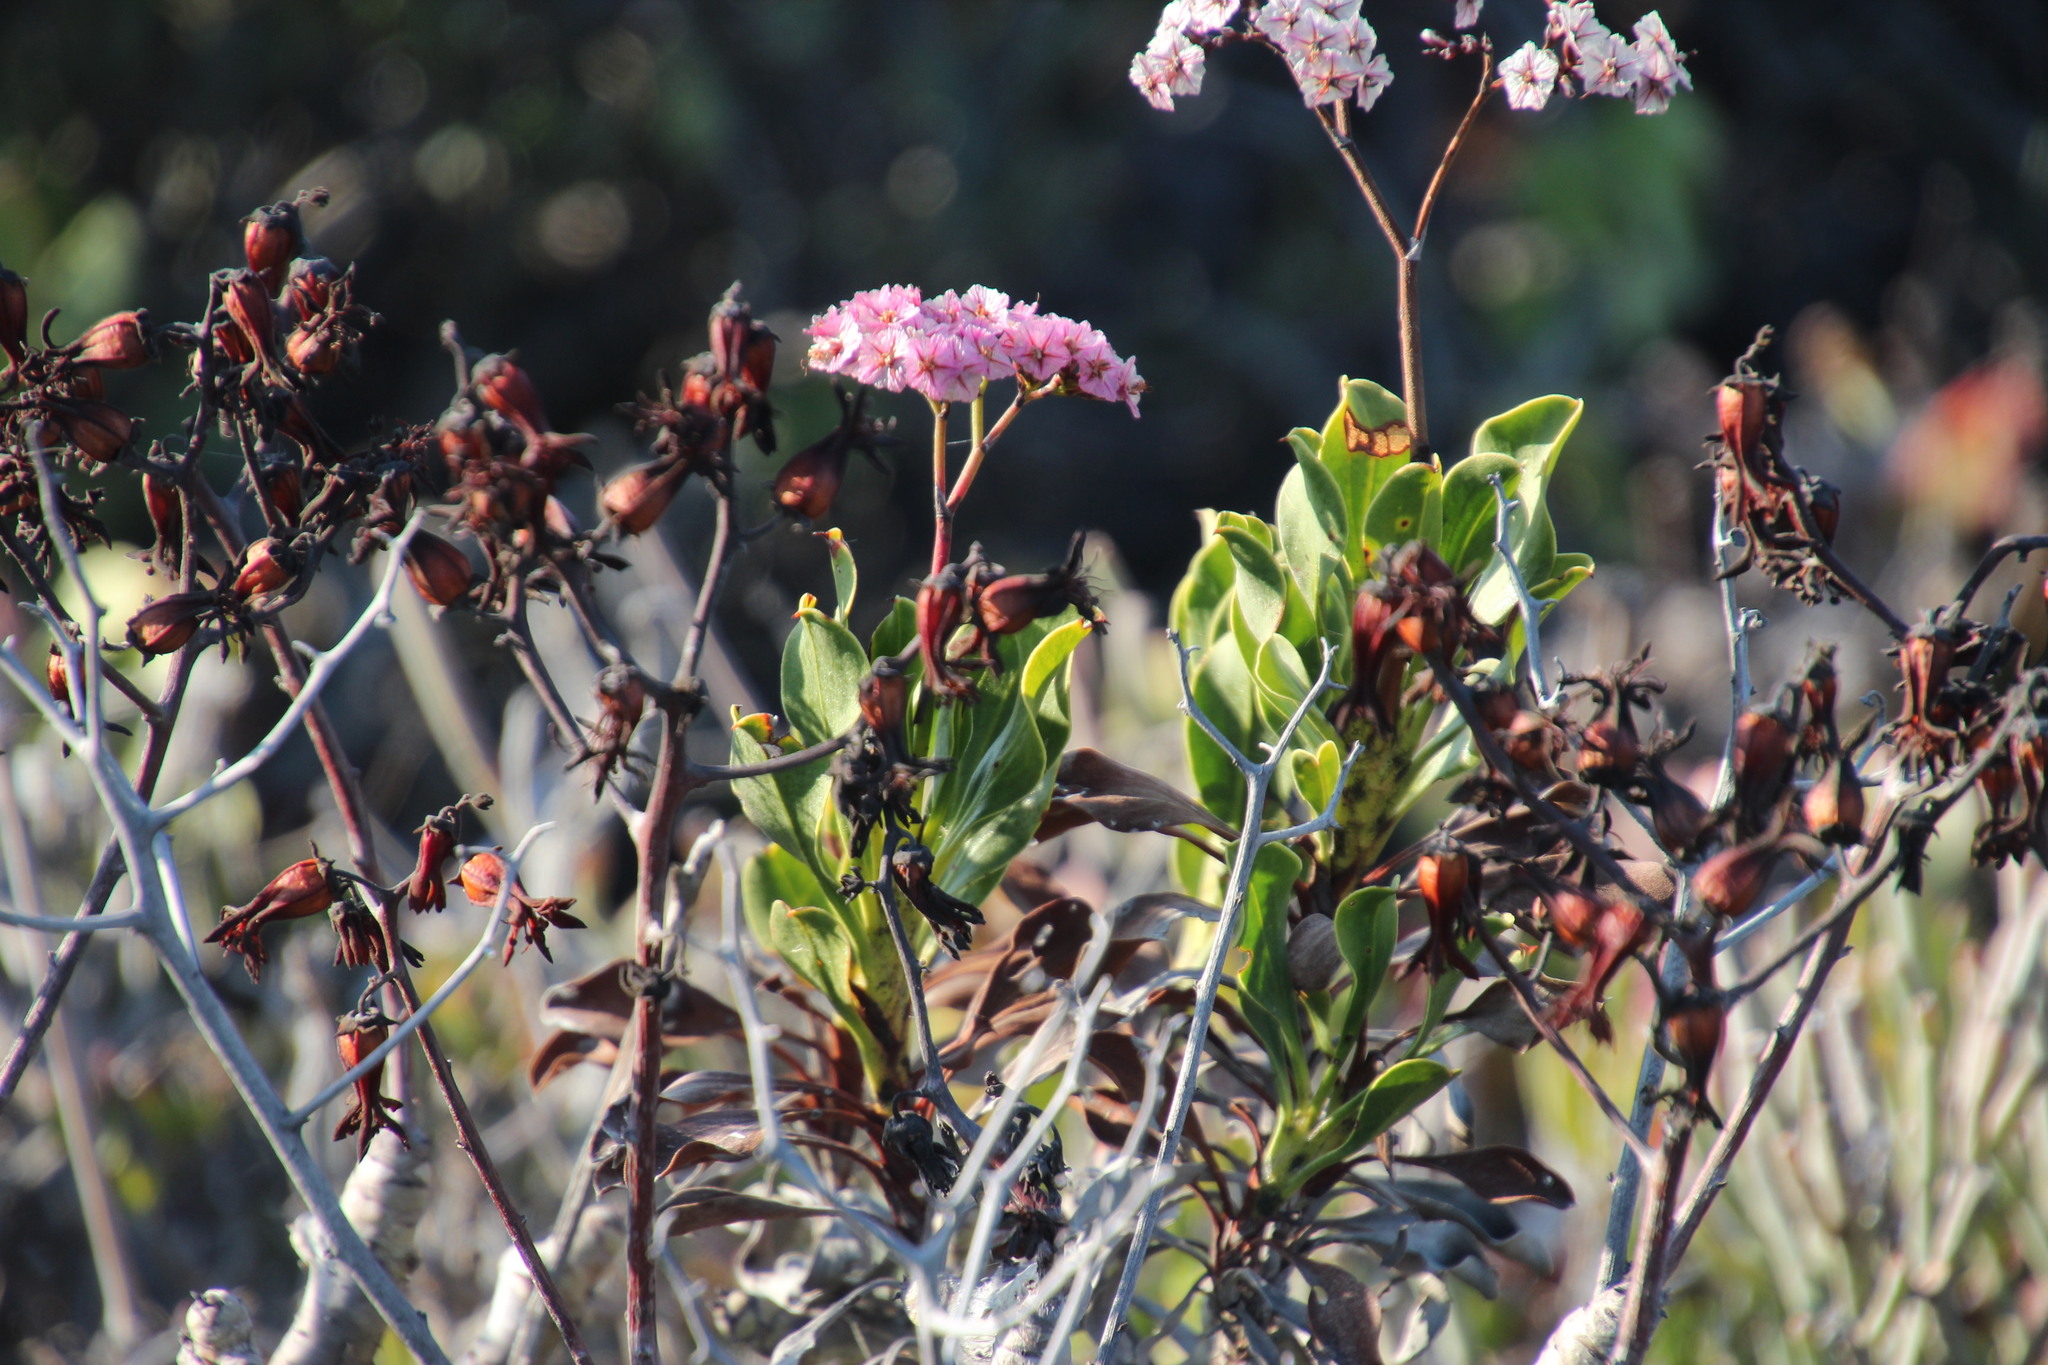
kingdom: Plantae
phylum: Tracheophyta
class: Magnoliopsida
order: Caryophyllales
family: Plumbaginaceae
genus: Limonium
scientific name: Limonium peregrinum
